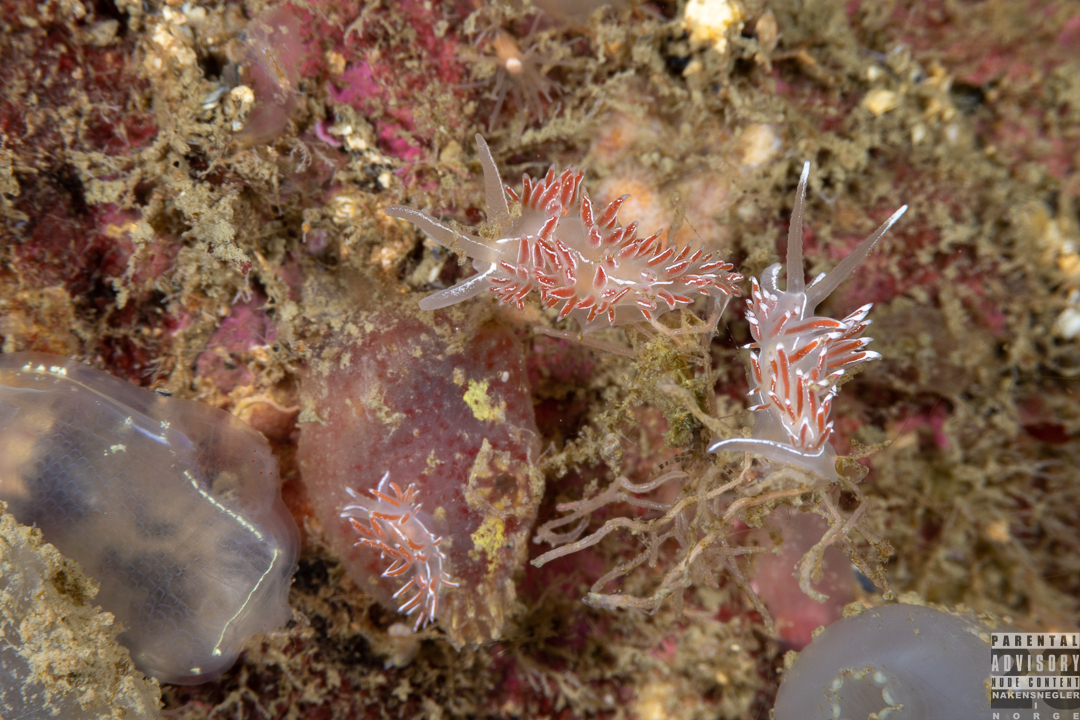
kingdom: Animalia
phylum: Mollusca
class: Gastropoda
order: Nudibranchia
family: Coryphellidae
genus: Coryphella
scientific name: Coryphella chriskaugei
